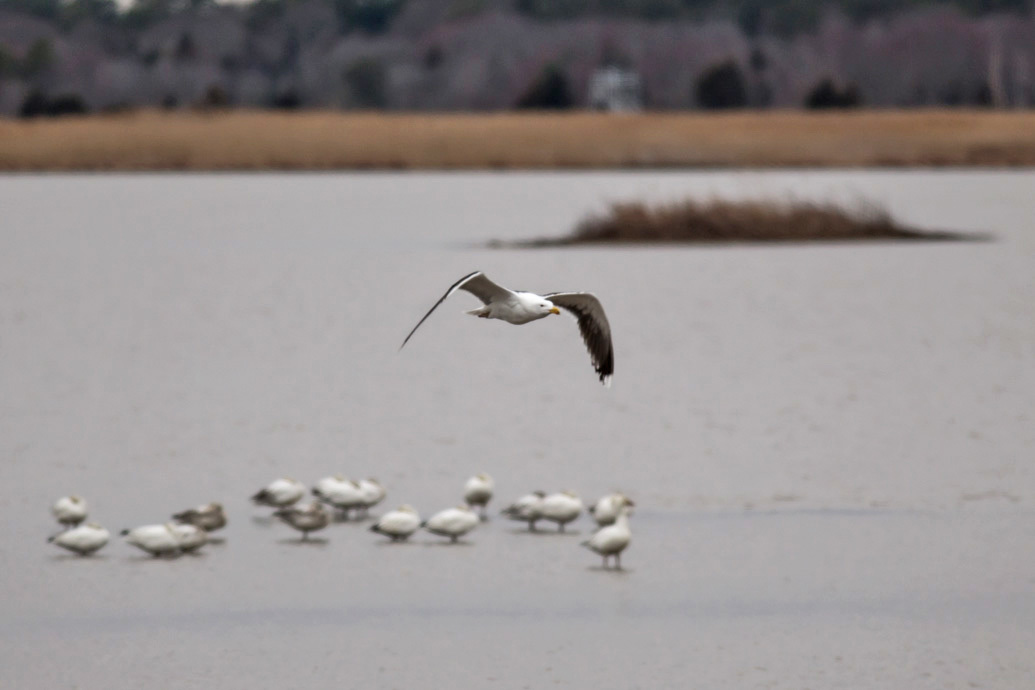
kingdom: Animalia
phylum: Chordata
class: Aves
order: Charadriiformes
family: Laridae
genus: Larus
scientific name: Larus marinus
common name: Great black-backed gull
